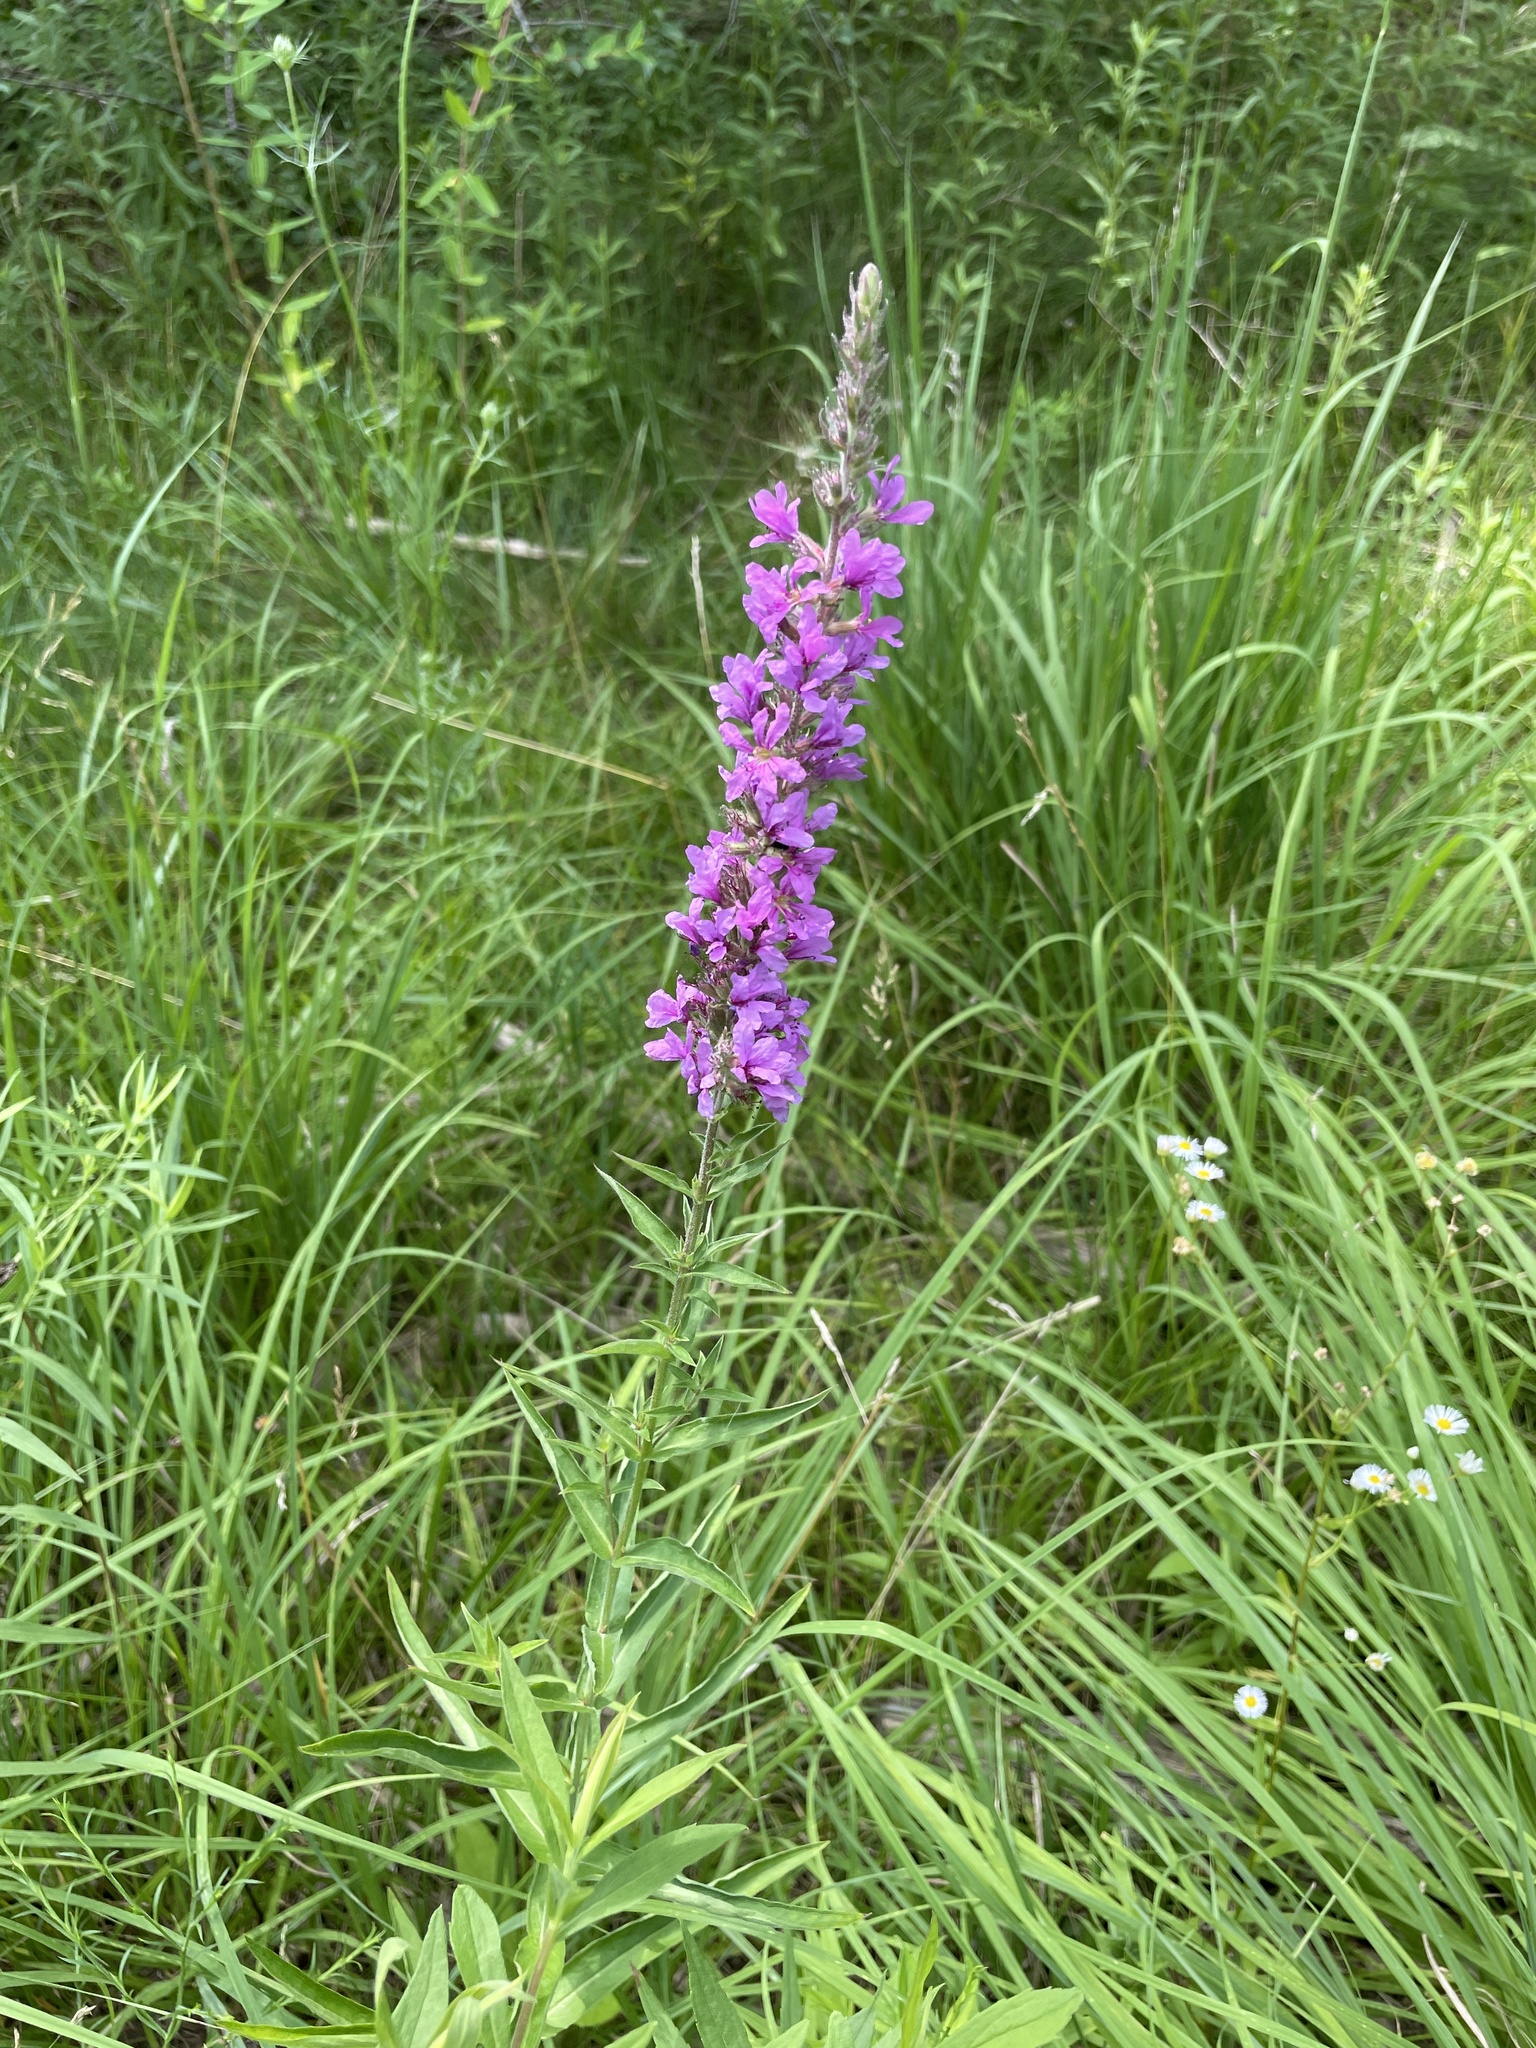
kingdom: Plantae
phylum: Tracheophyta
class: Magnoliopsida
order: Myrtales
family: Lythraceae
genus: Lythrum
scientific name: Lythrum salicaria
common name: Purple loosestrife
